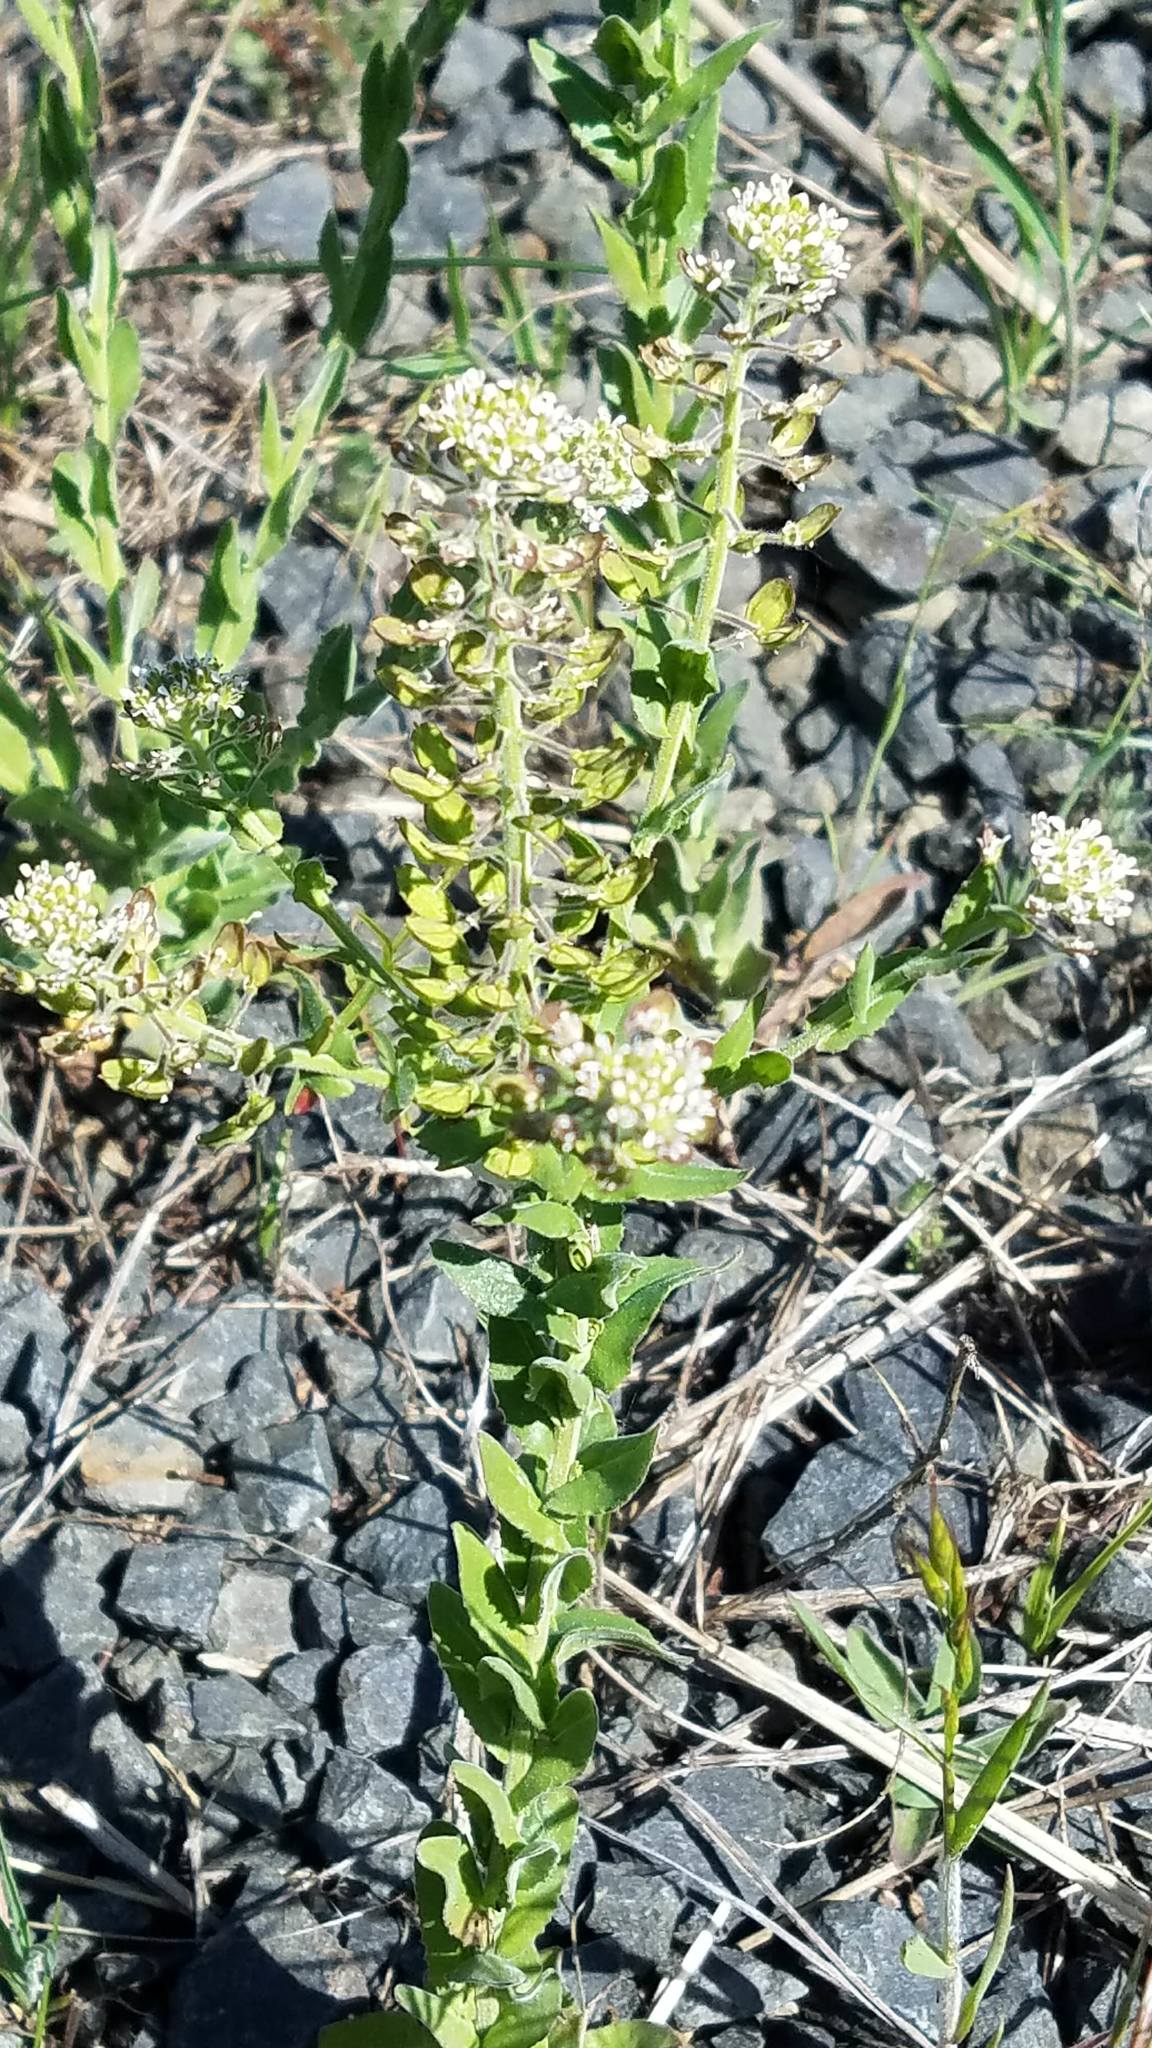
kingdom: Plantae
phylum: Tracheophyta
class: Magnoliopsida
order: Brassicales
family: Brassicaceae
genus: Lepidium
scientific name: Lepidium campestre
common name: Field pepperwort
